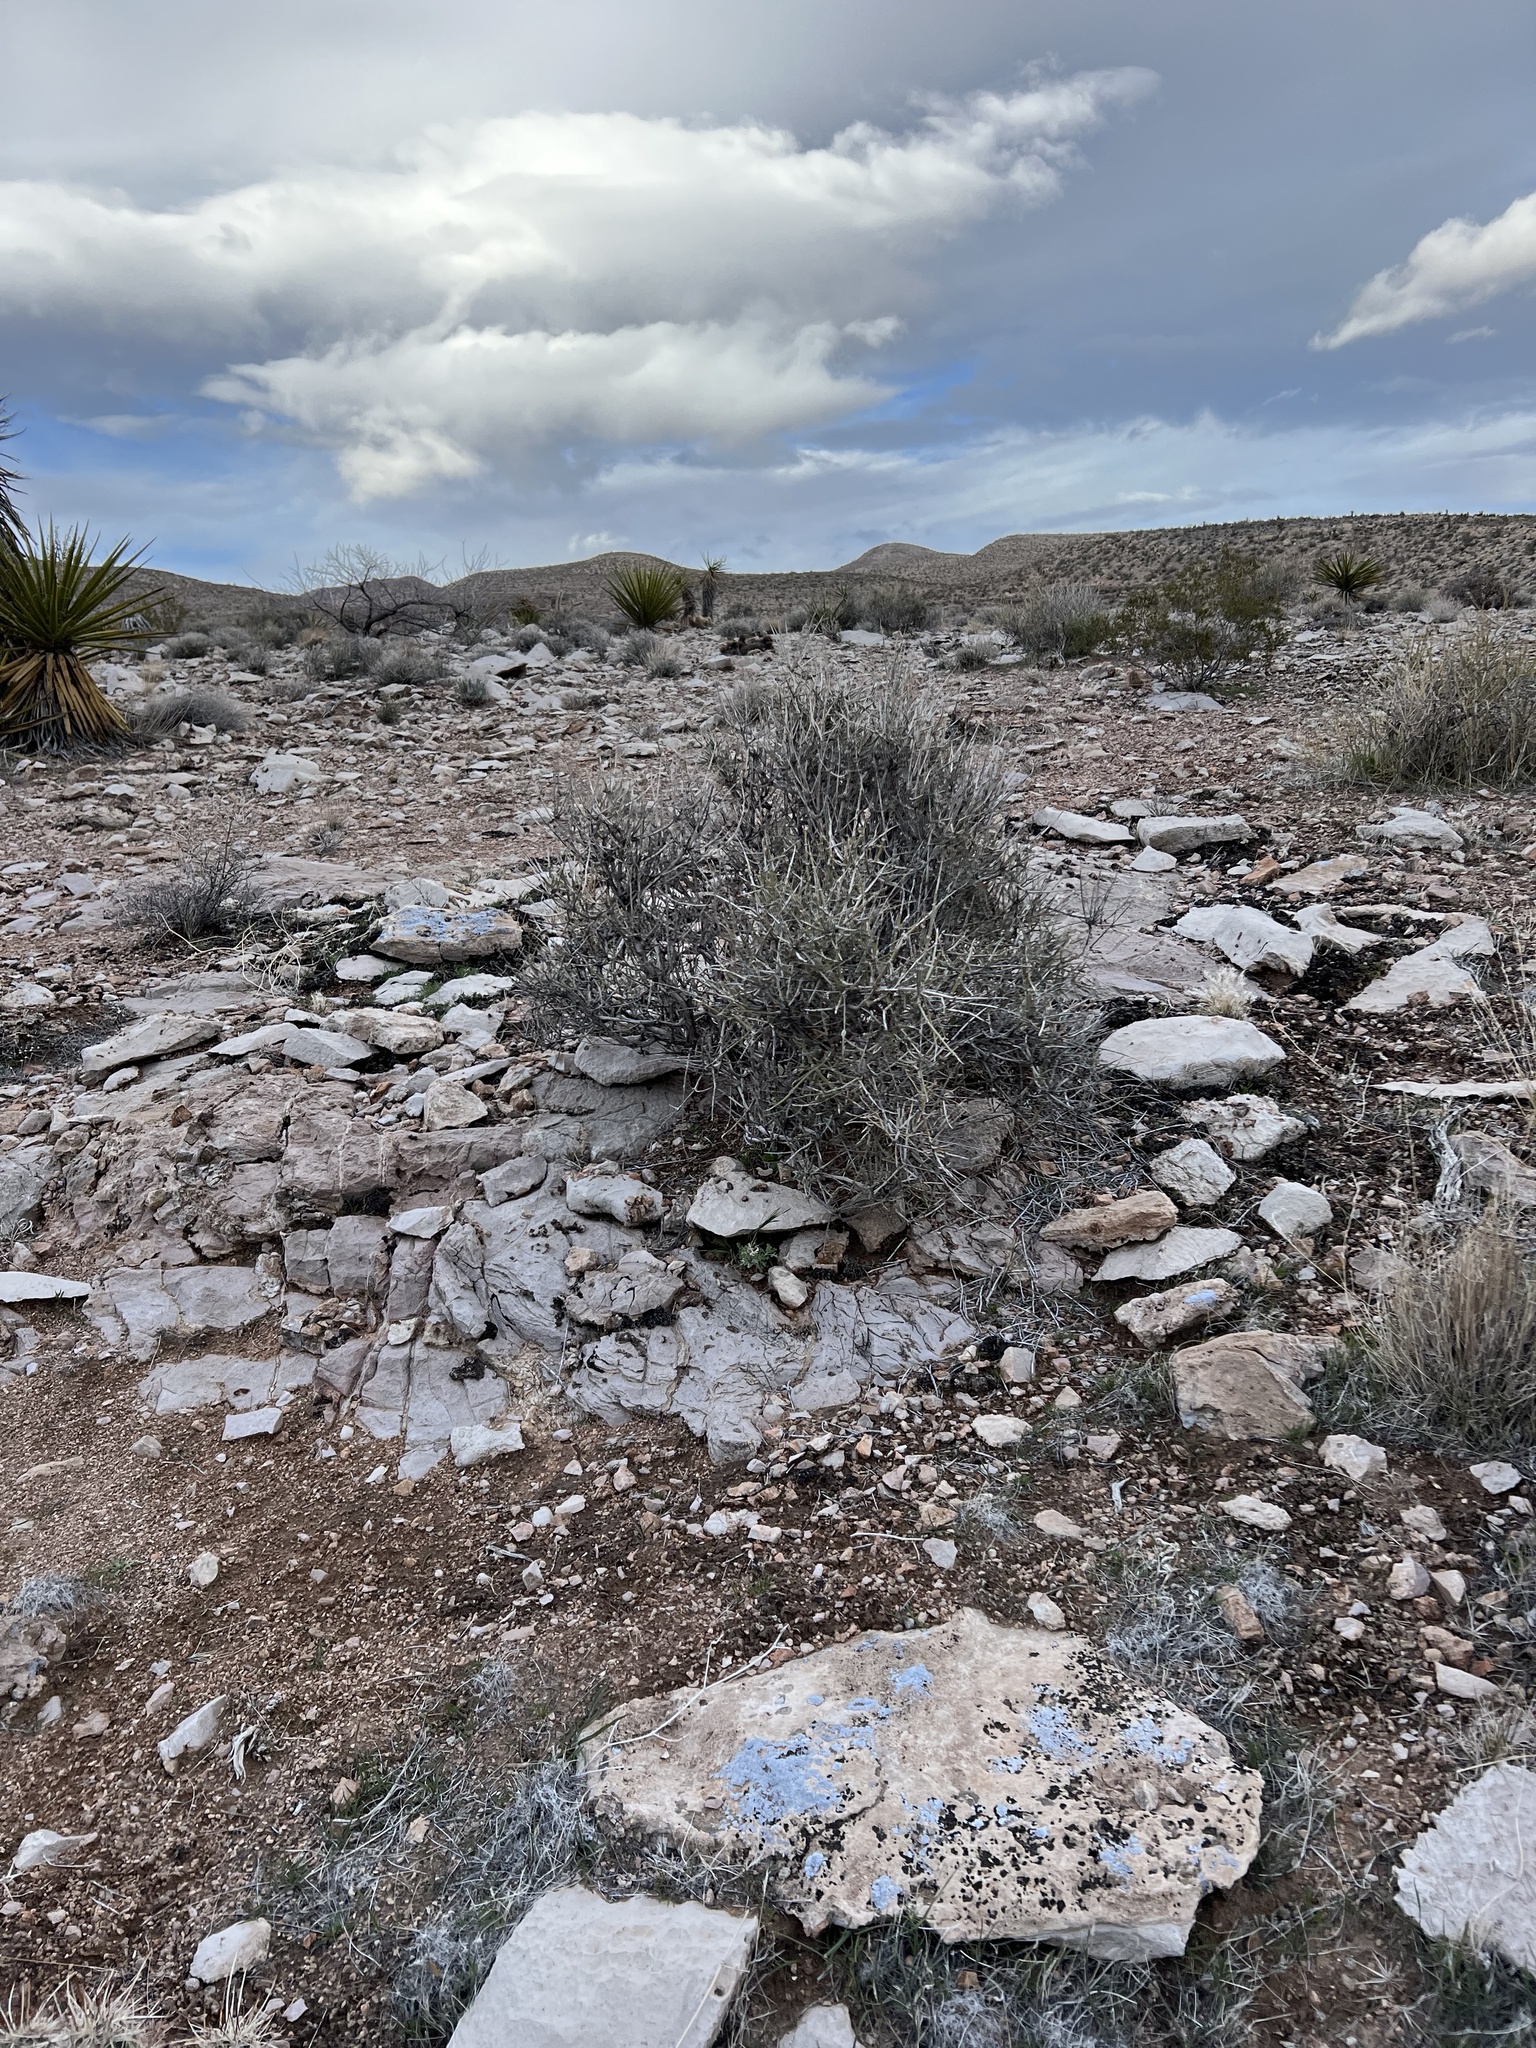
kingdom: Plantae
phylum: Tracheophyta
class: Gnetopsida
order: Ephedrales
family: Ephedraceae
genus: Ephedra
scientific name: Ephedra nevadensis
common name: Gray ephedra
